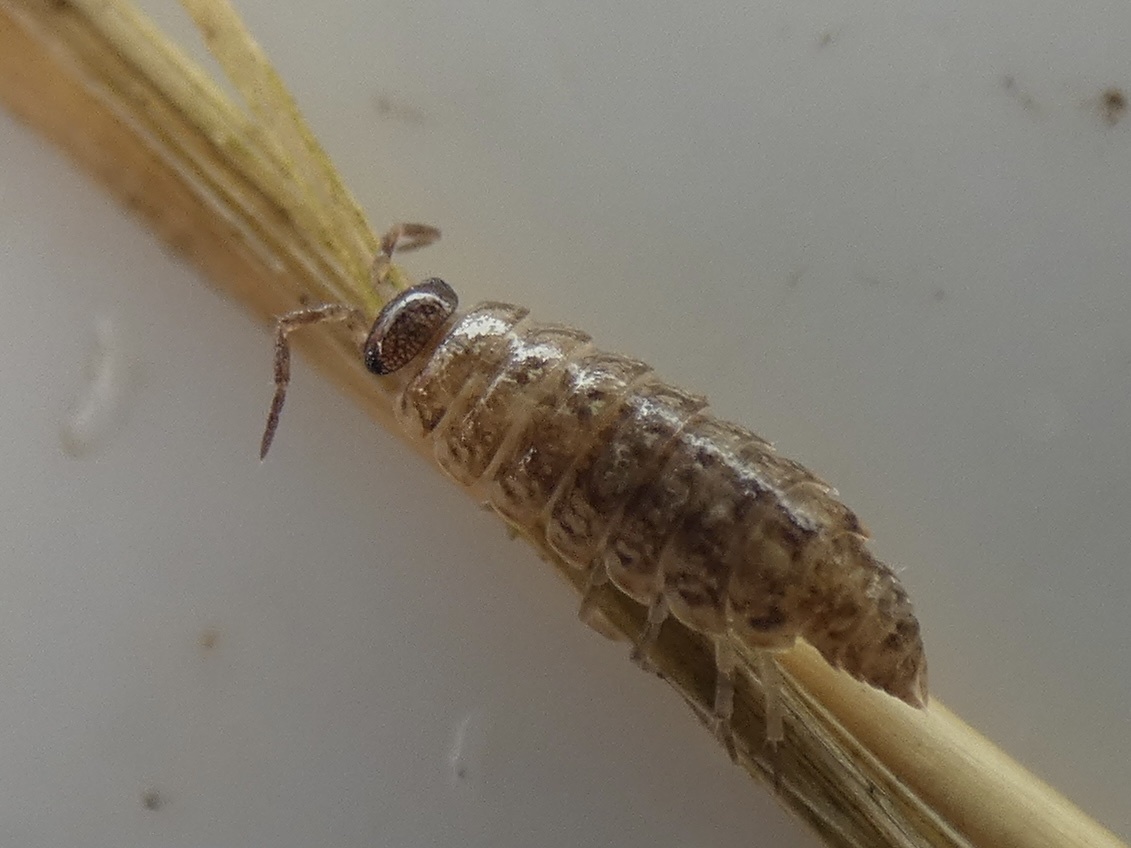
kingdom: Animalia
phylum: Arthropoda
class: Malacostraca
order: Isopoda
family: Philosciidae
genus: Philoscia
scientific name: Philoscia
